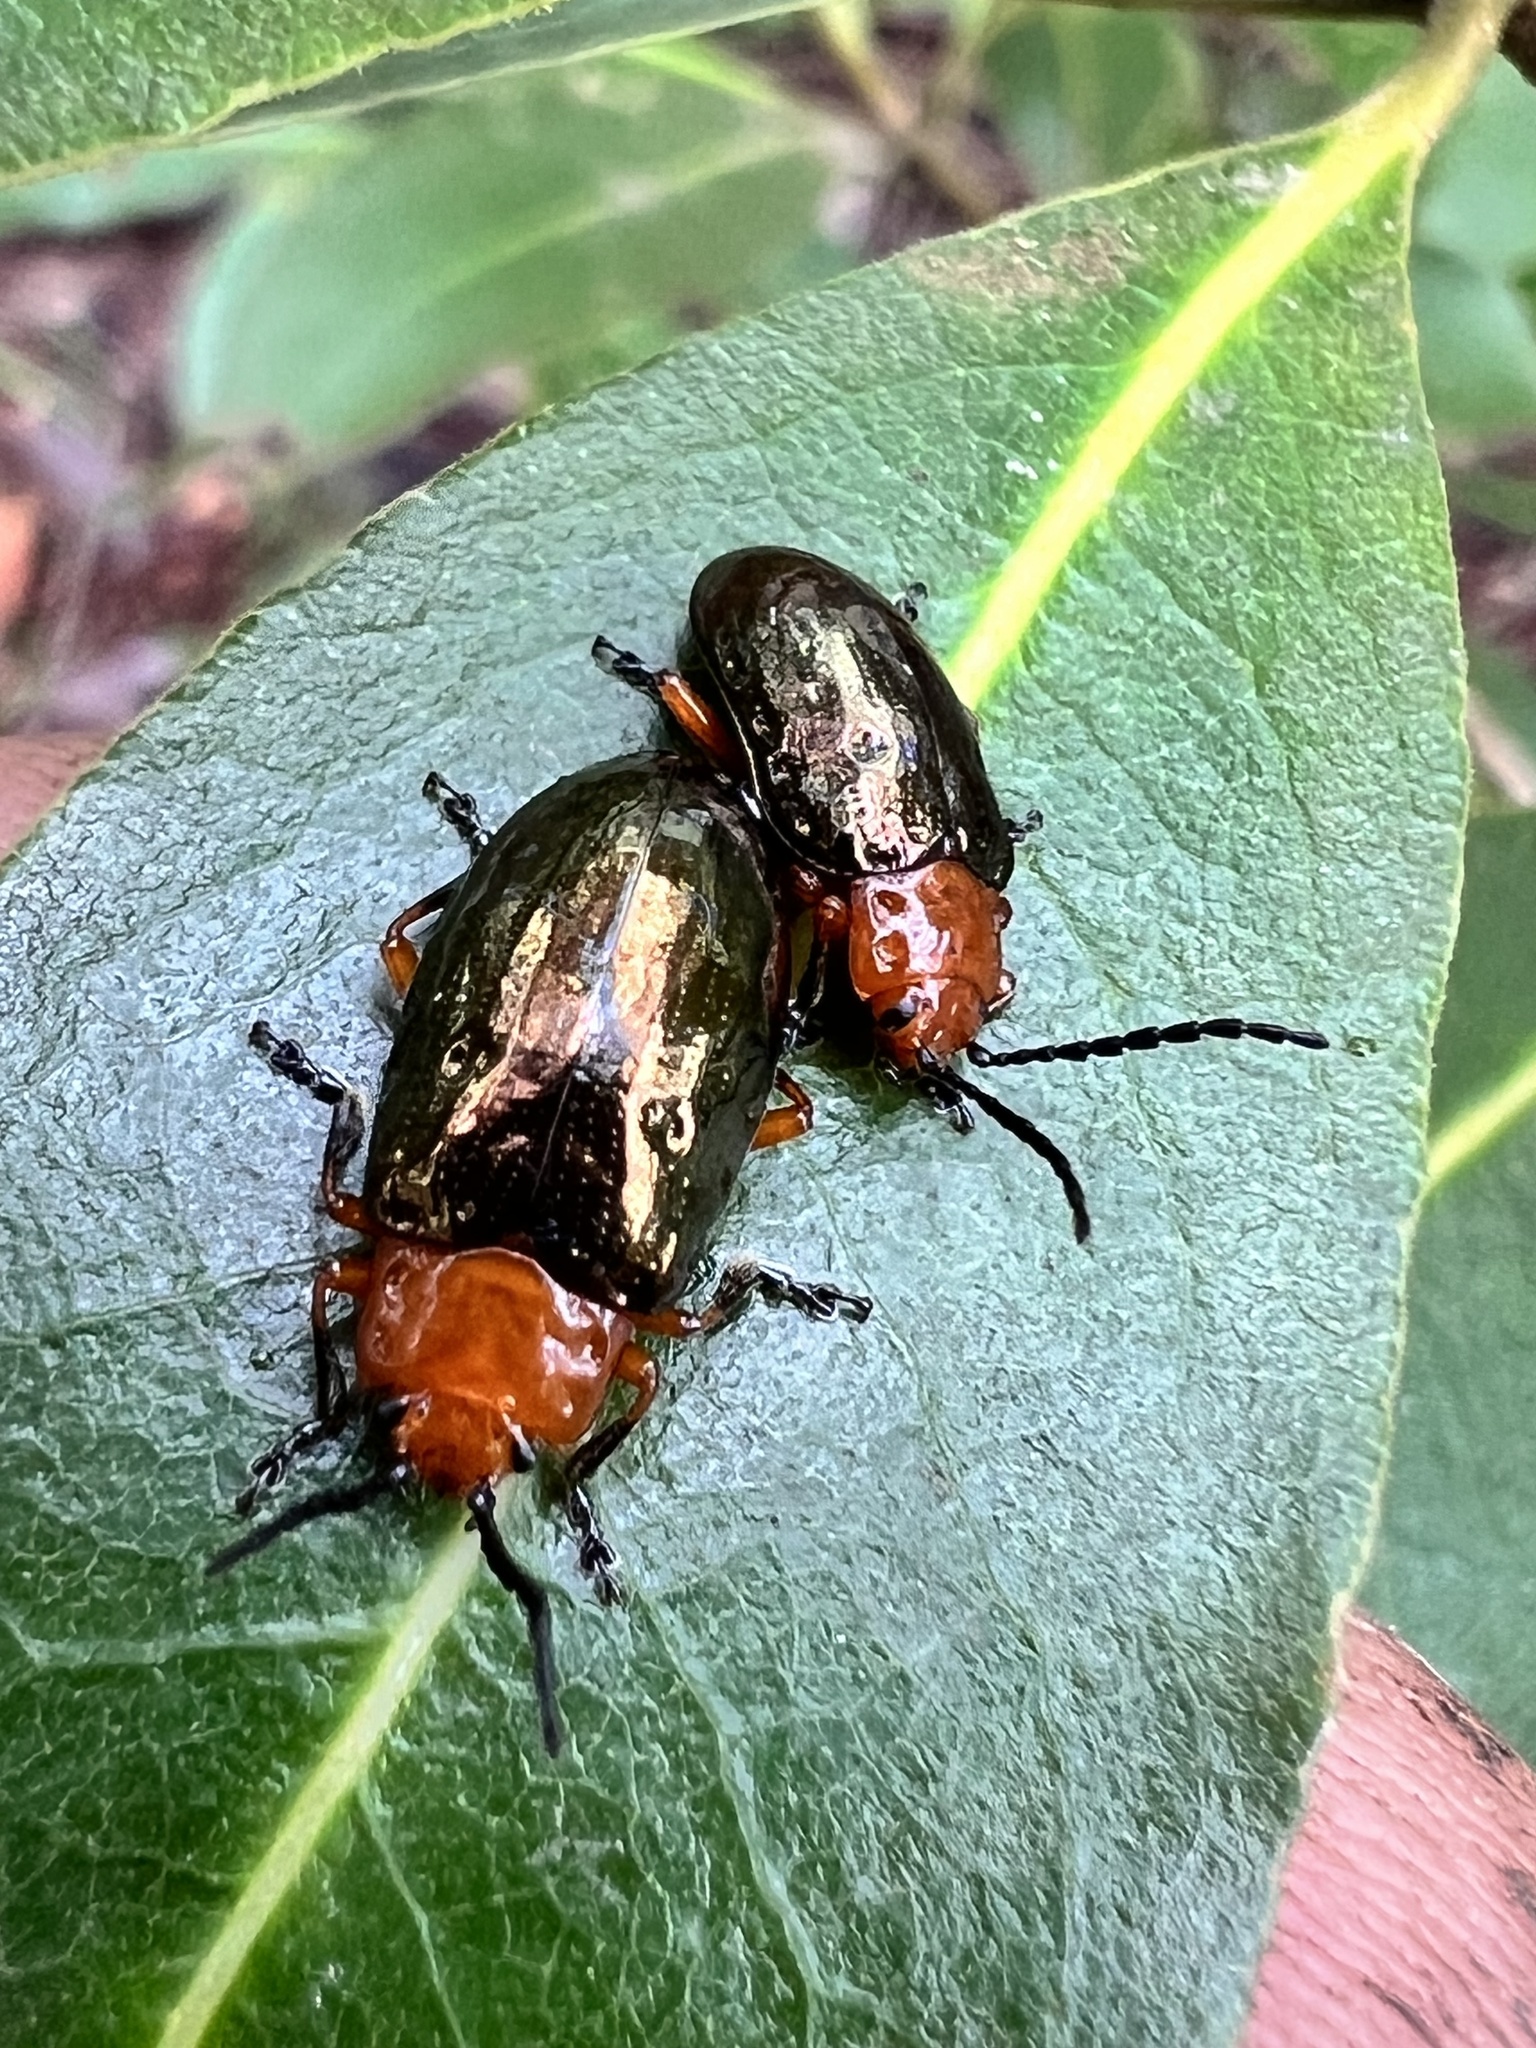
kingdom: Animalia
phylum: Arthropoda
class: Insecta
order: Coleoptera
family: Chrysomelidae
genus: Lamprolina
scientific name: Lamprolina
